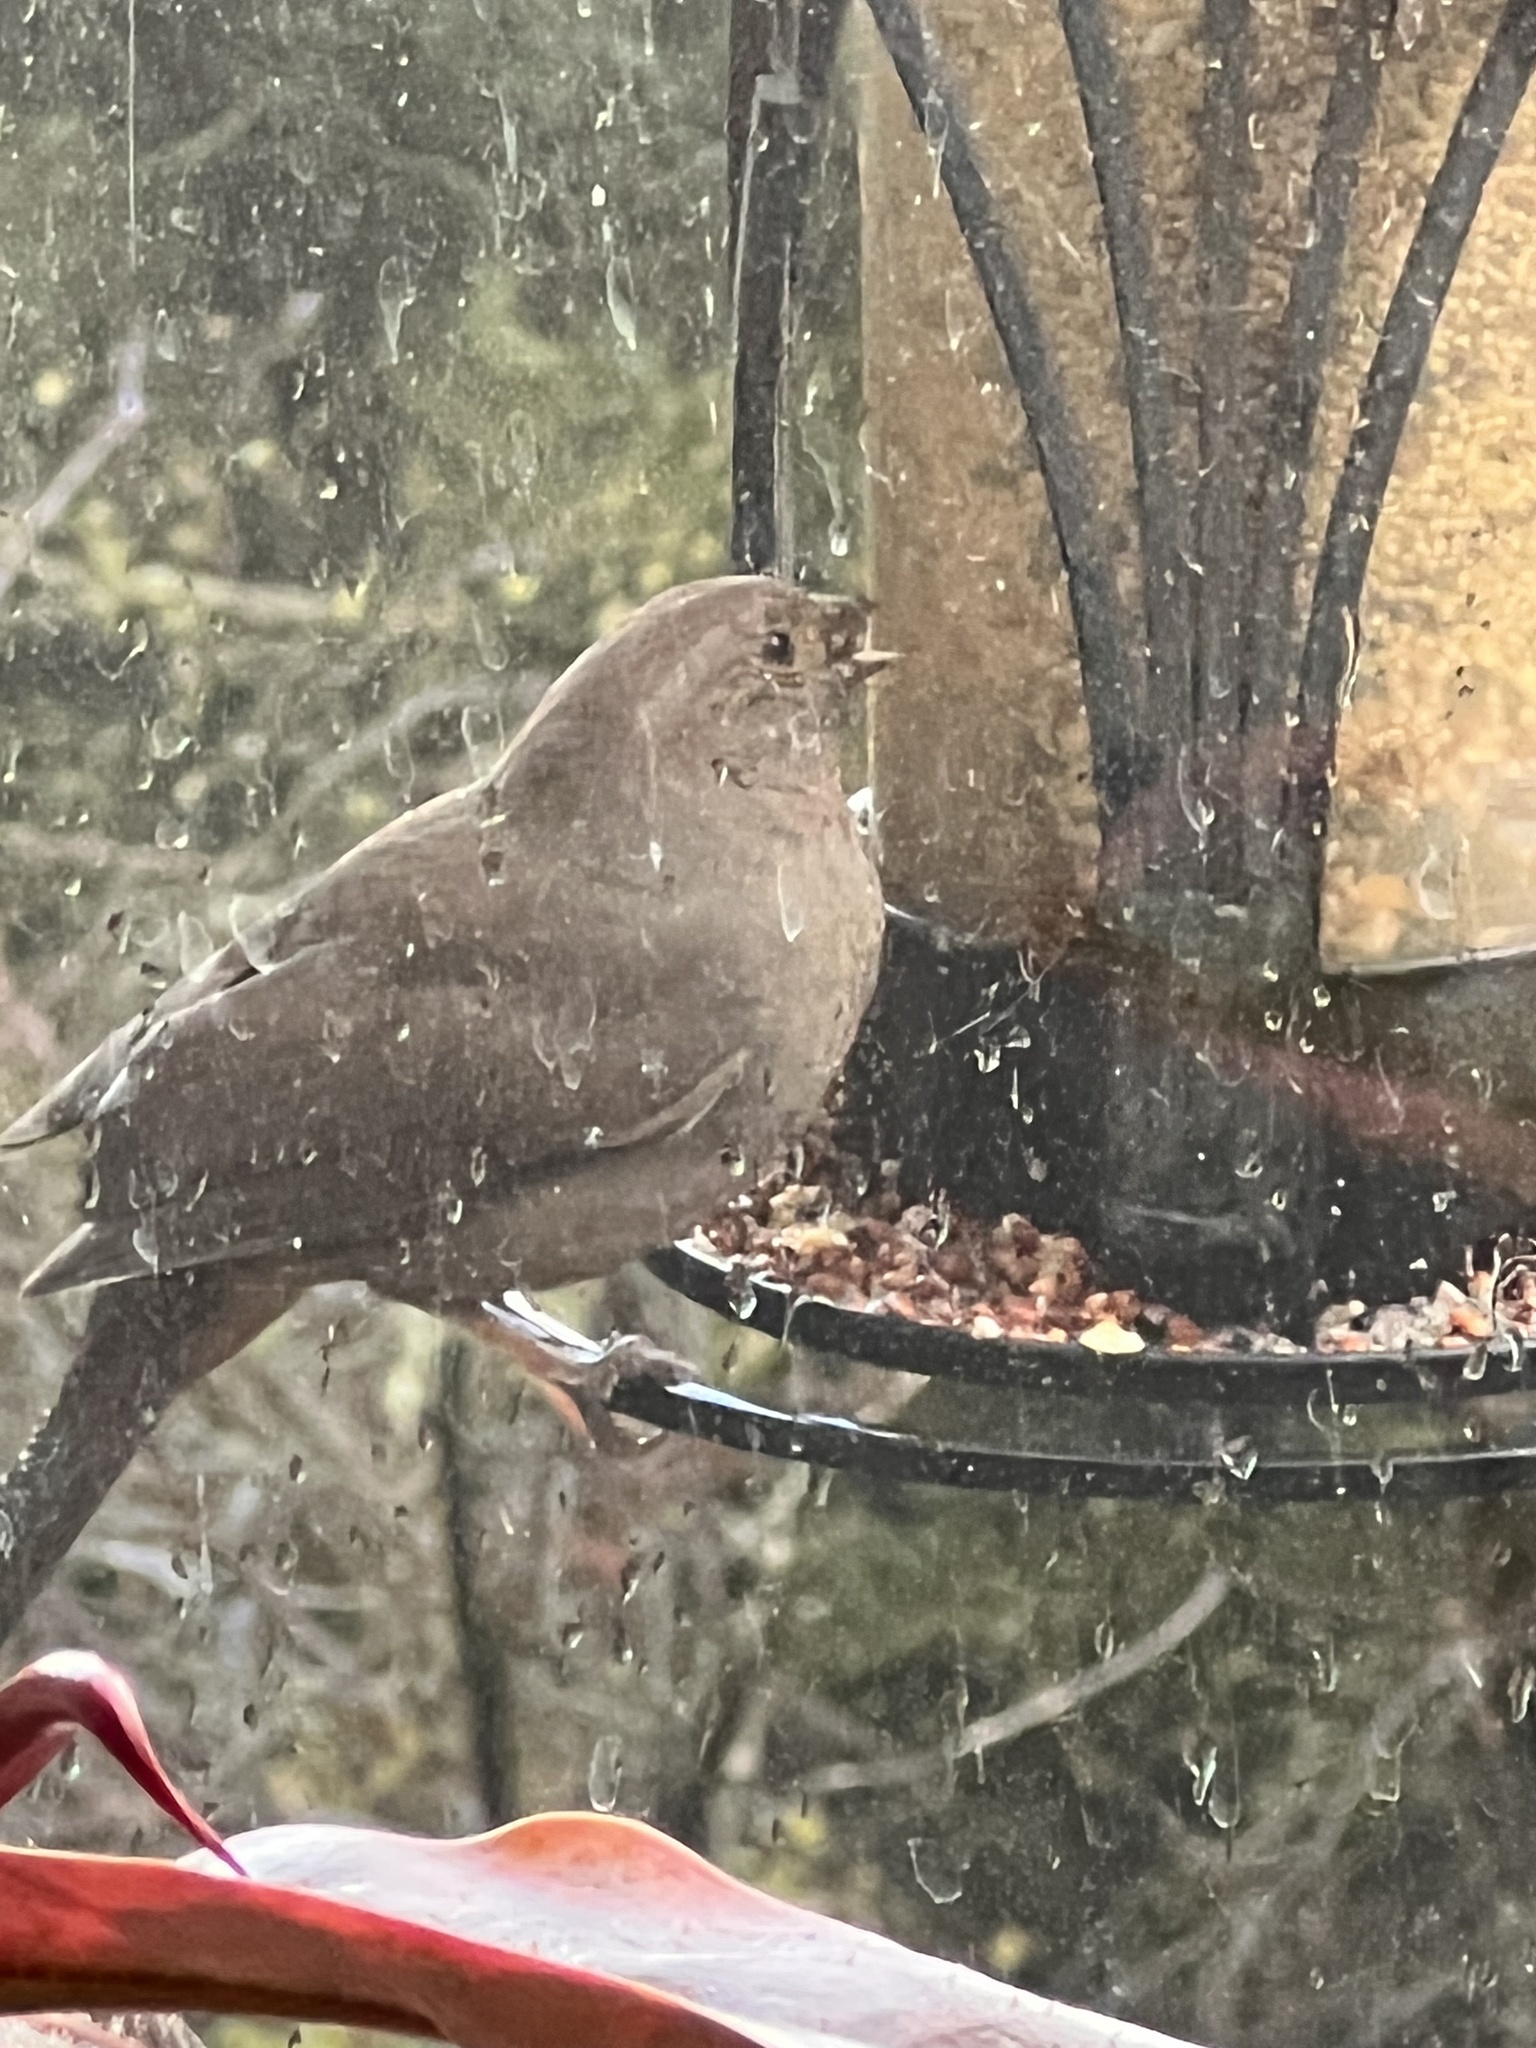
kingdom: Animalia
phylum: Chordata
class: Aves
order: Passeriformes
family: Passerellidae
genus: Melozone
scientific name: Melozone crissalis
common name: California towhee
